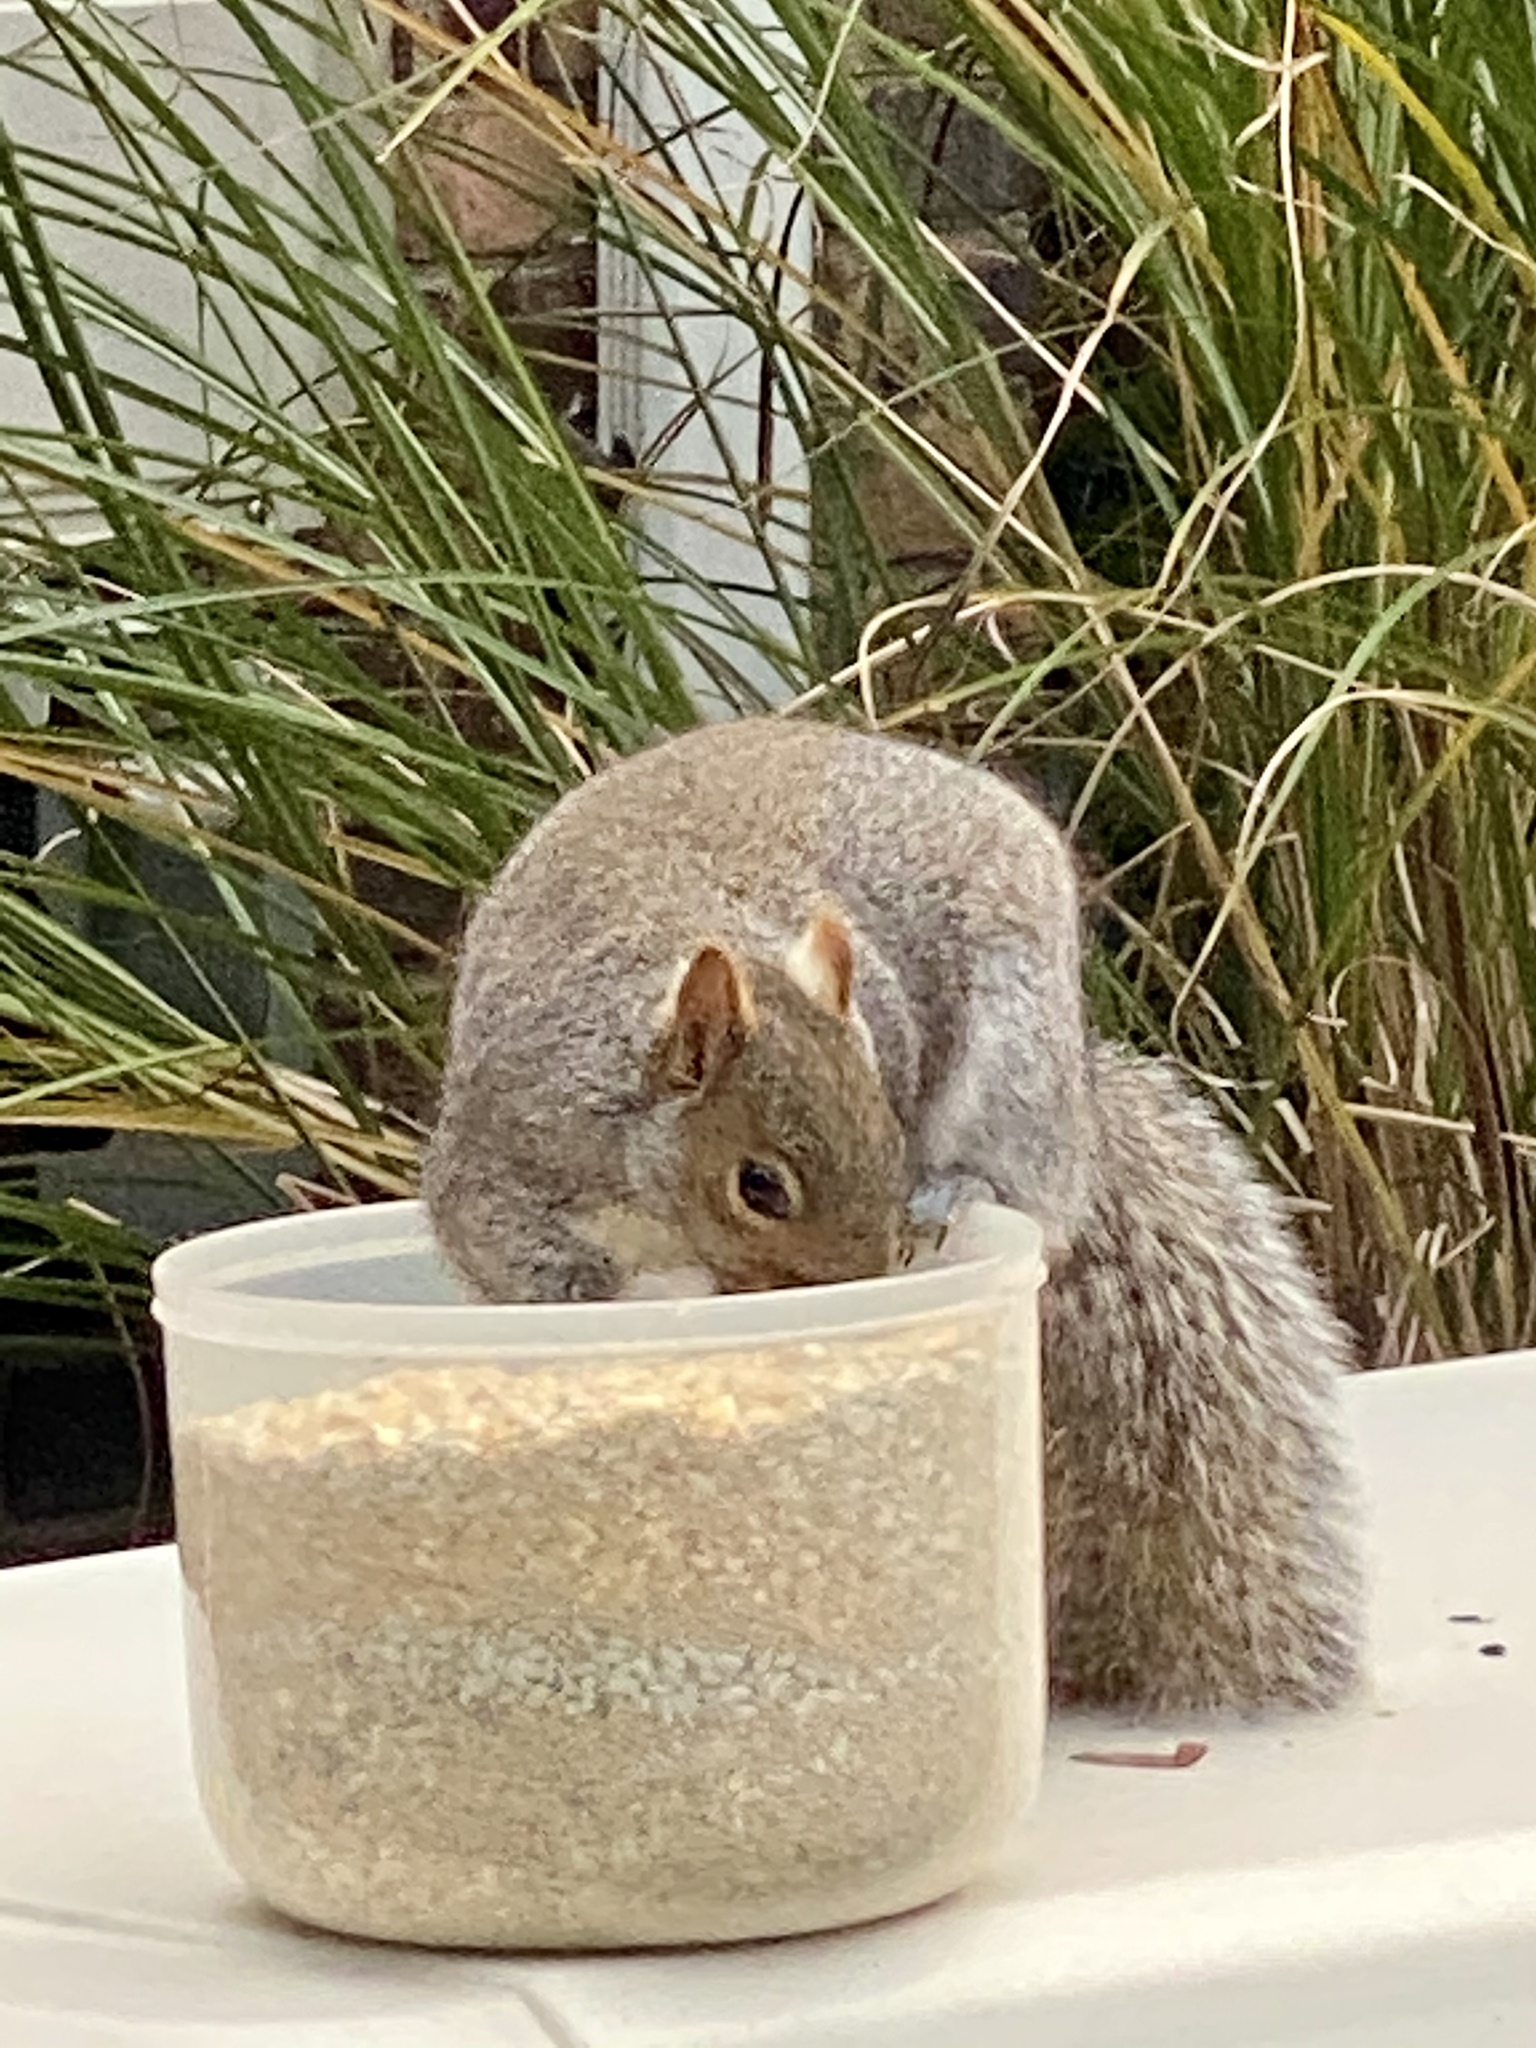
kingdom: Animalia
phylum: Chordata
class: Mammalia
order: Rodentia
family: Sciuridae
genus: Sciurus
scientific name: Sciurus carolinensis
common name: Eastern gray squirrel
